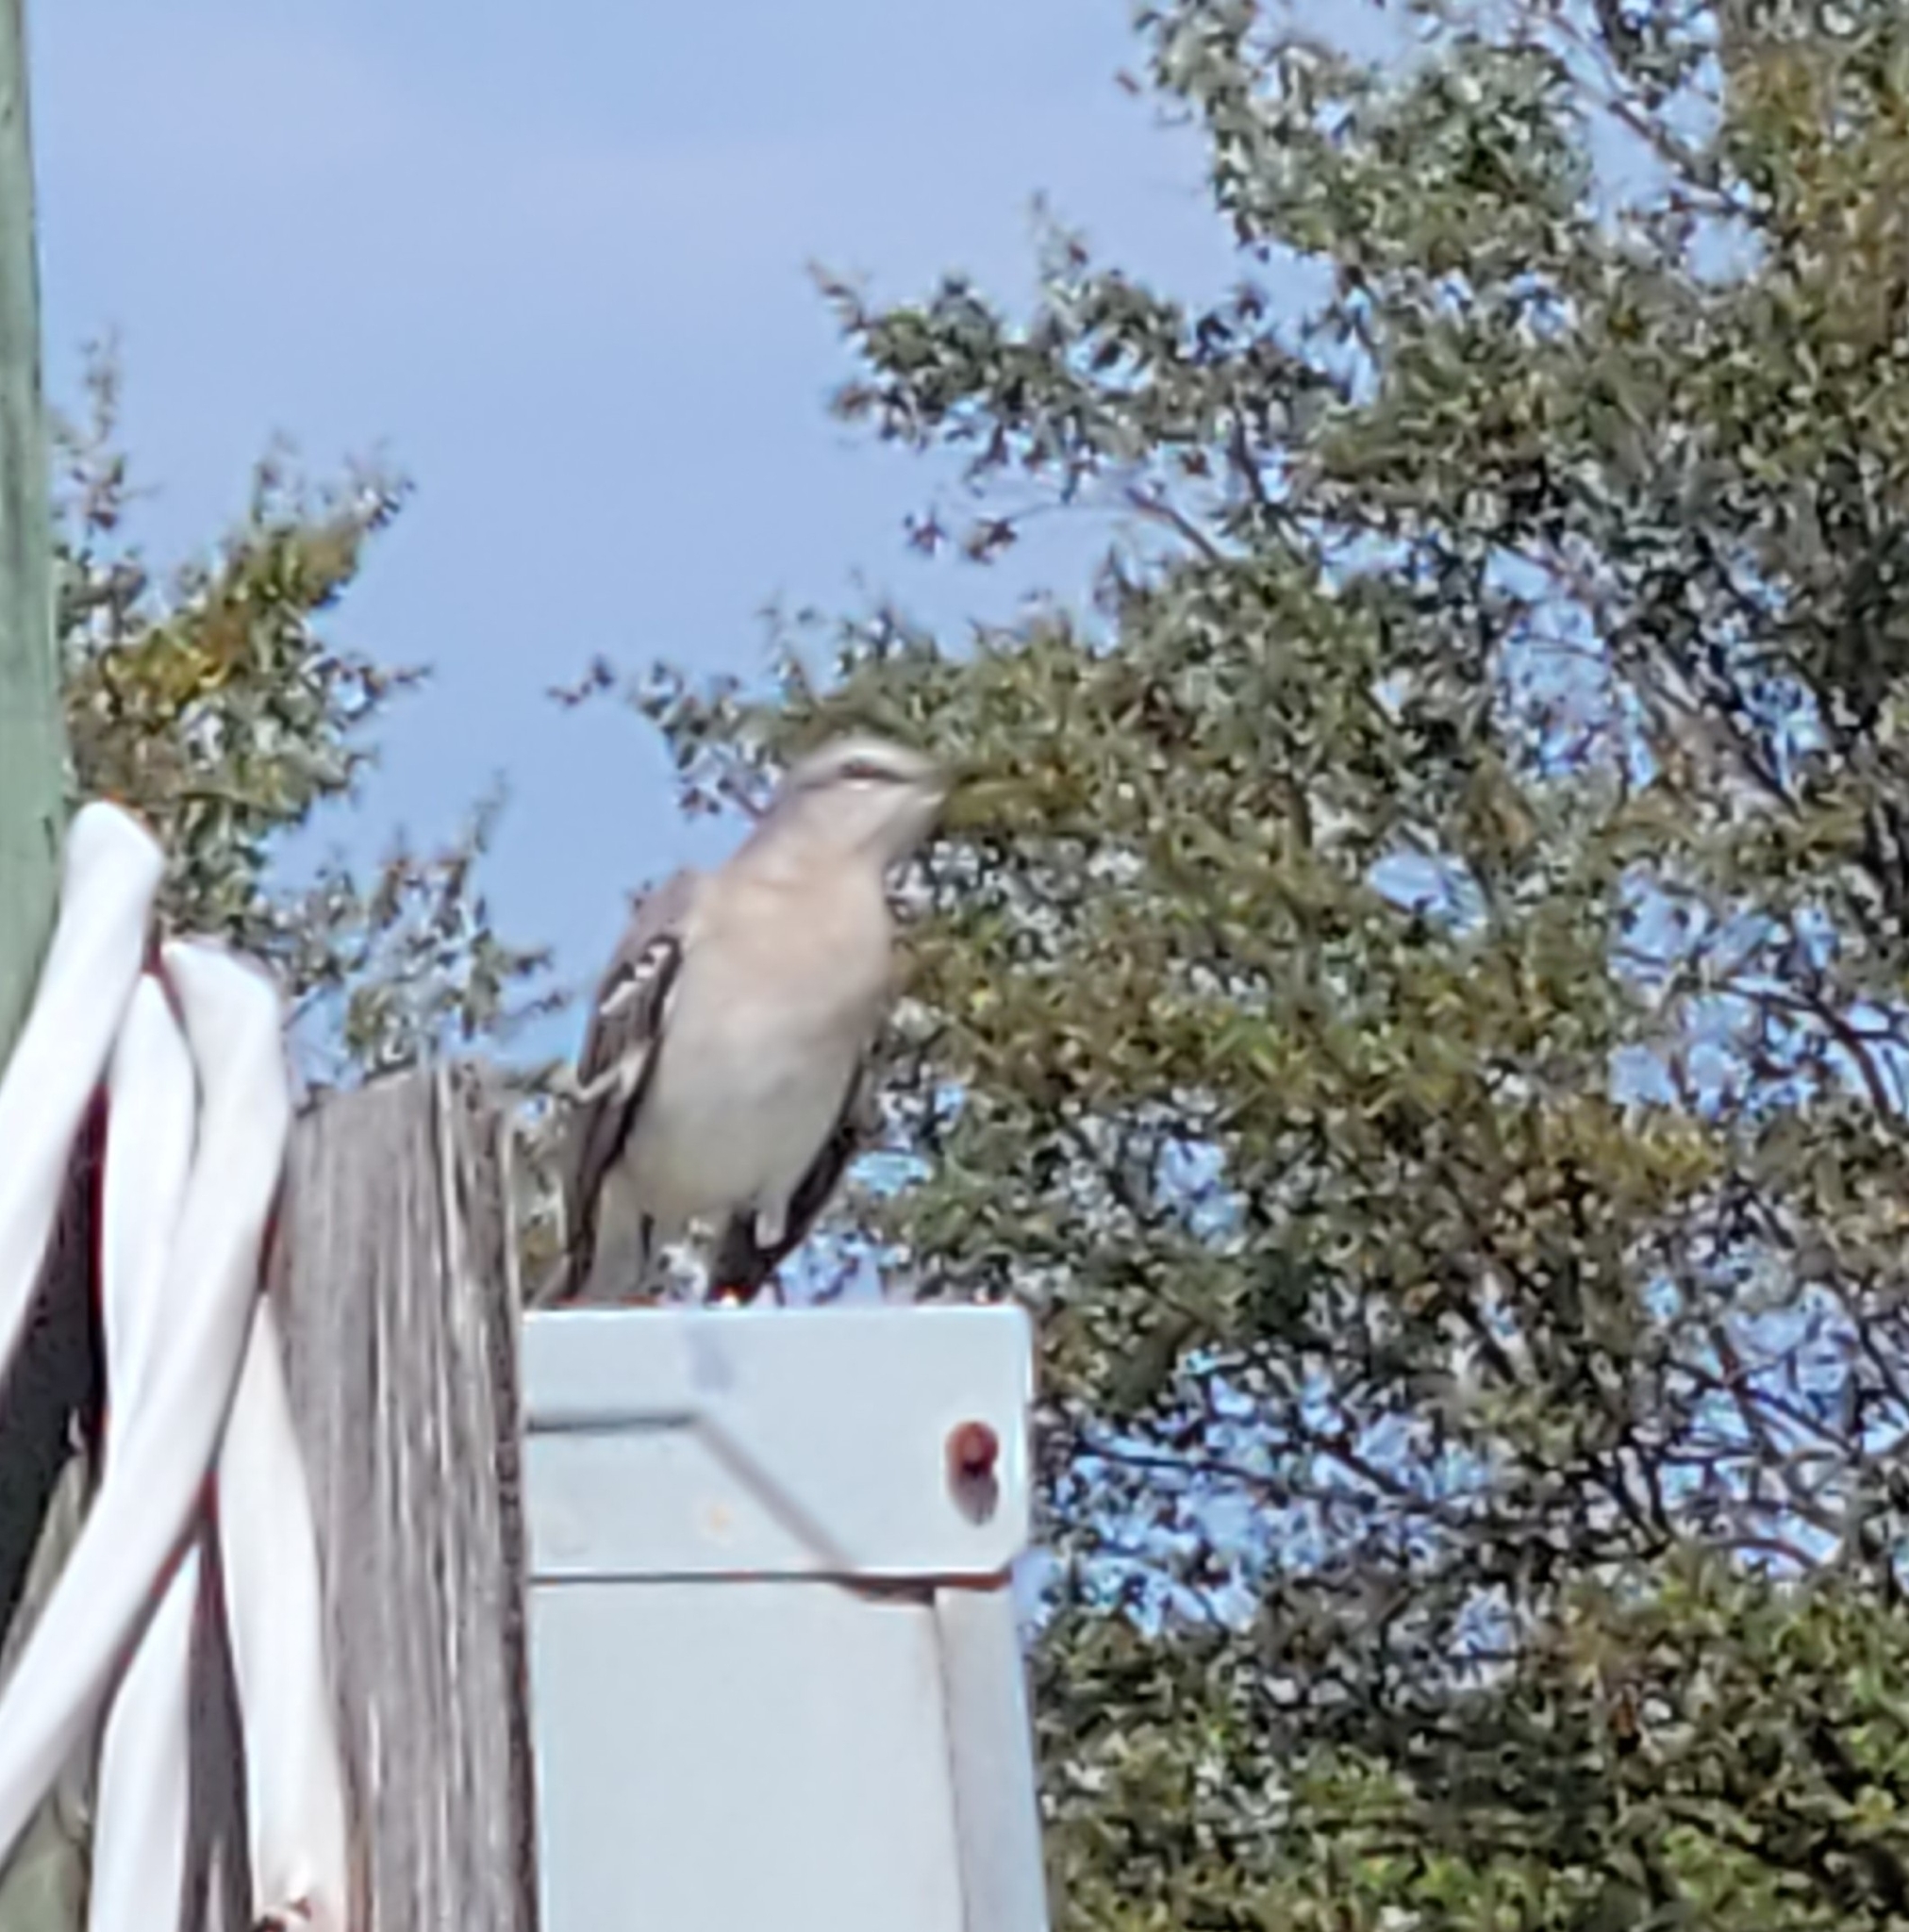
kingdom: Animalia
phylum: Chordata
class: Aves
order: Passeriformes
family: Mimidae
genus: Mimus
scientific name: Mimus polyglottos
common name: Northern mockingbird
